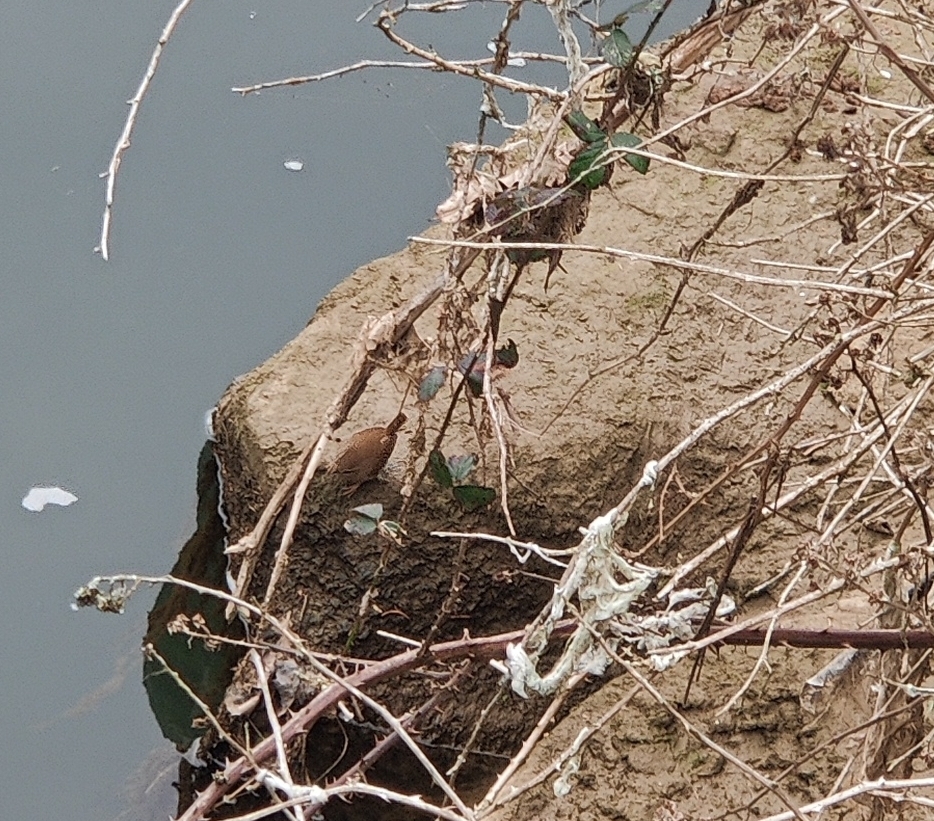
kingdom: Animalia
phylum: Chordata
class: Aves
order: Passeriformes
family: Troglodytidae
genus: Troglodytes
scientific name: Troglodytes troglodytes
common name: Eurasian wren
